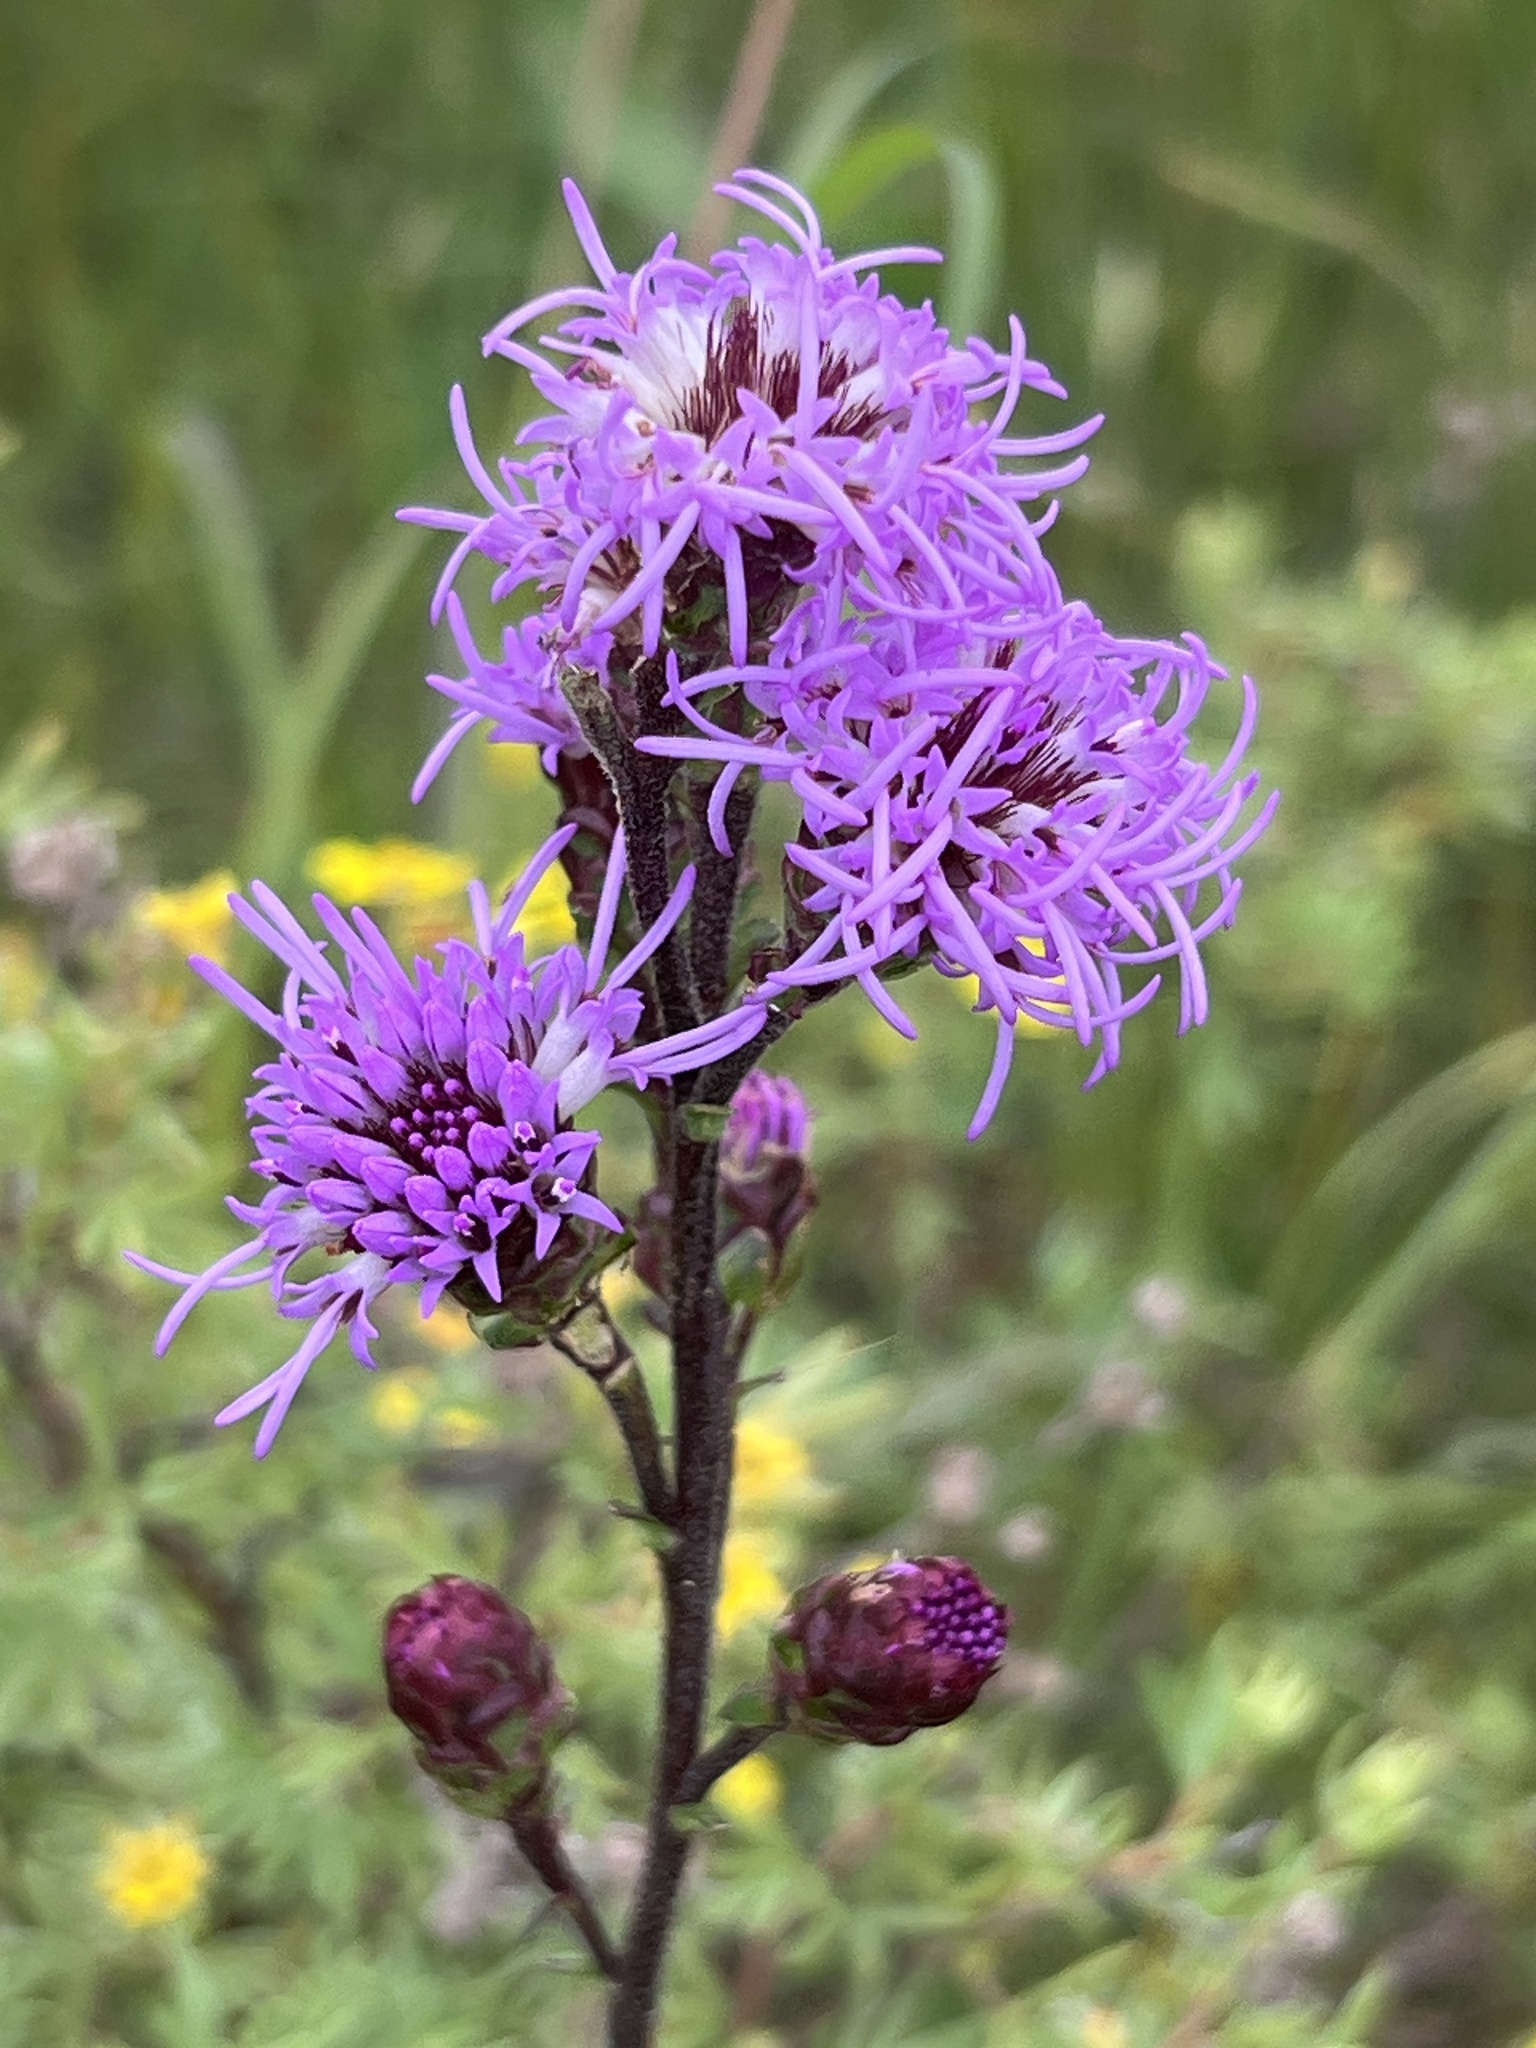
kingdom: Plantae
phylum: Tracheophyta
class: Magnoliopsida
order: Asterales
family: Asteraceae
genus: Liatris
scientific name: Liatris ligulistylis
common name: Northern plains gayfeather
